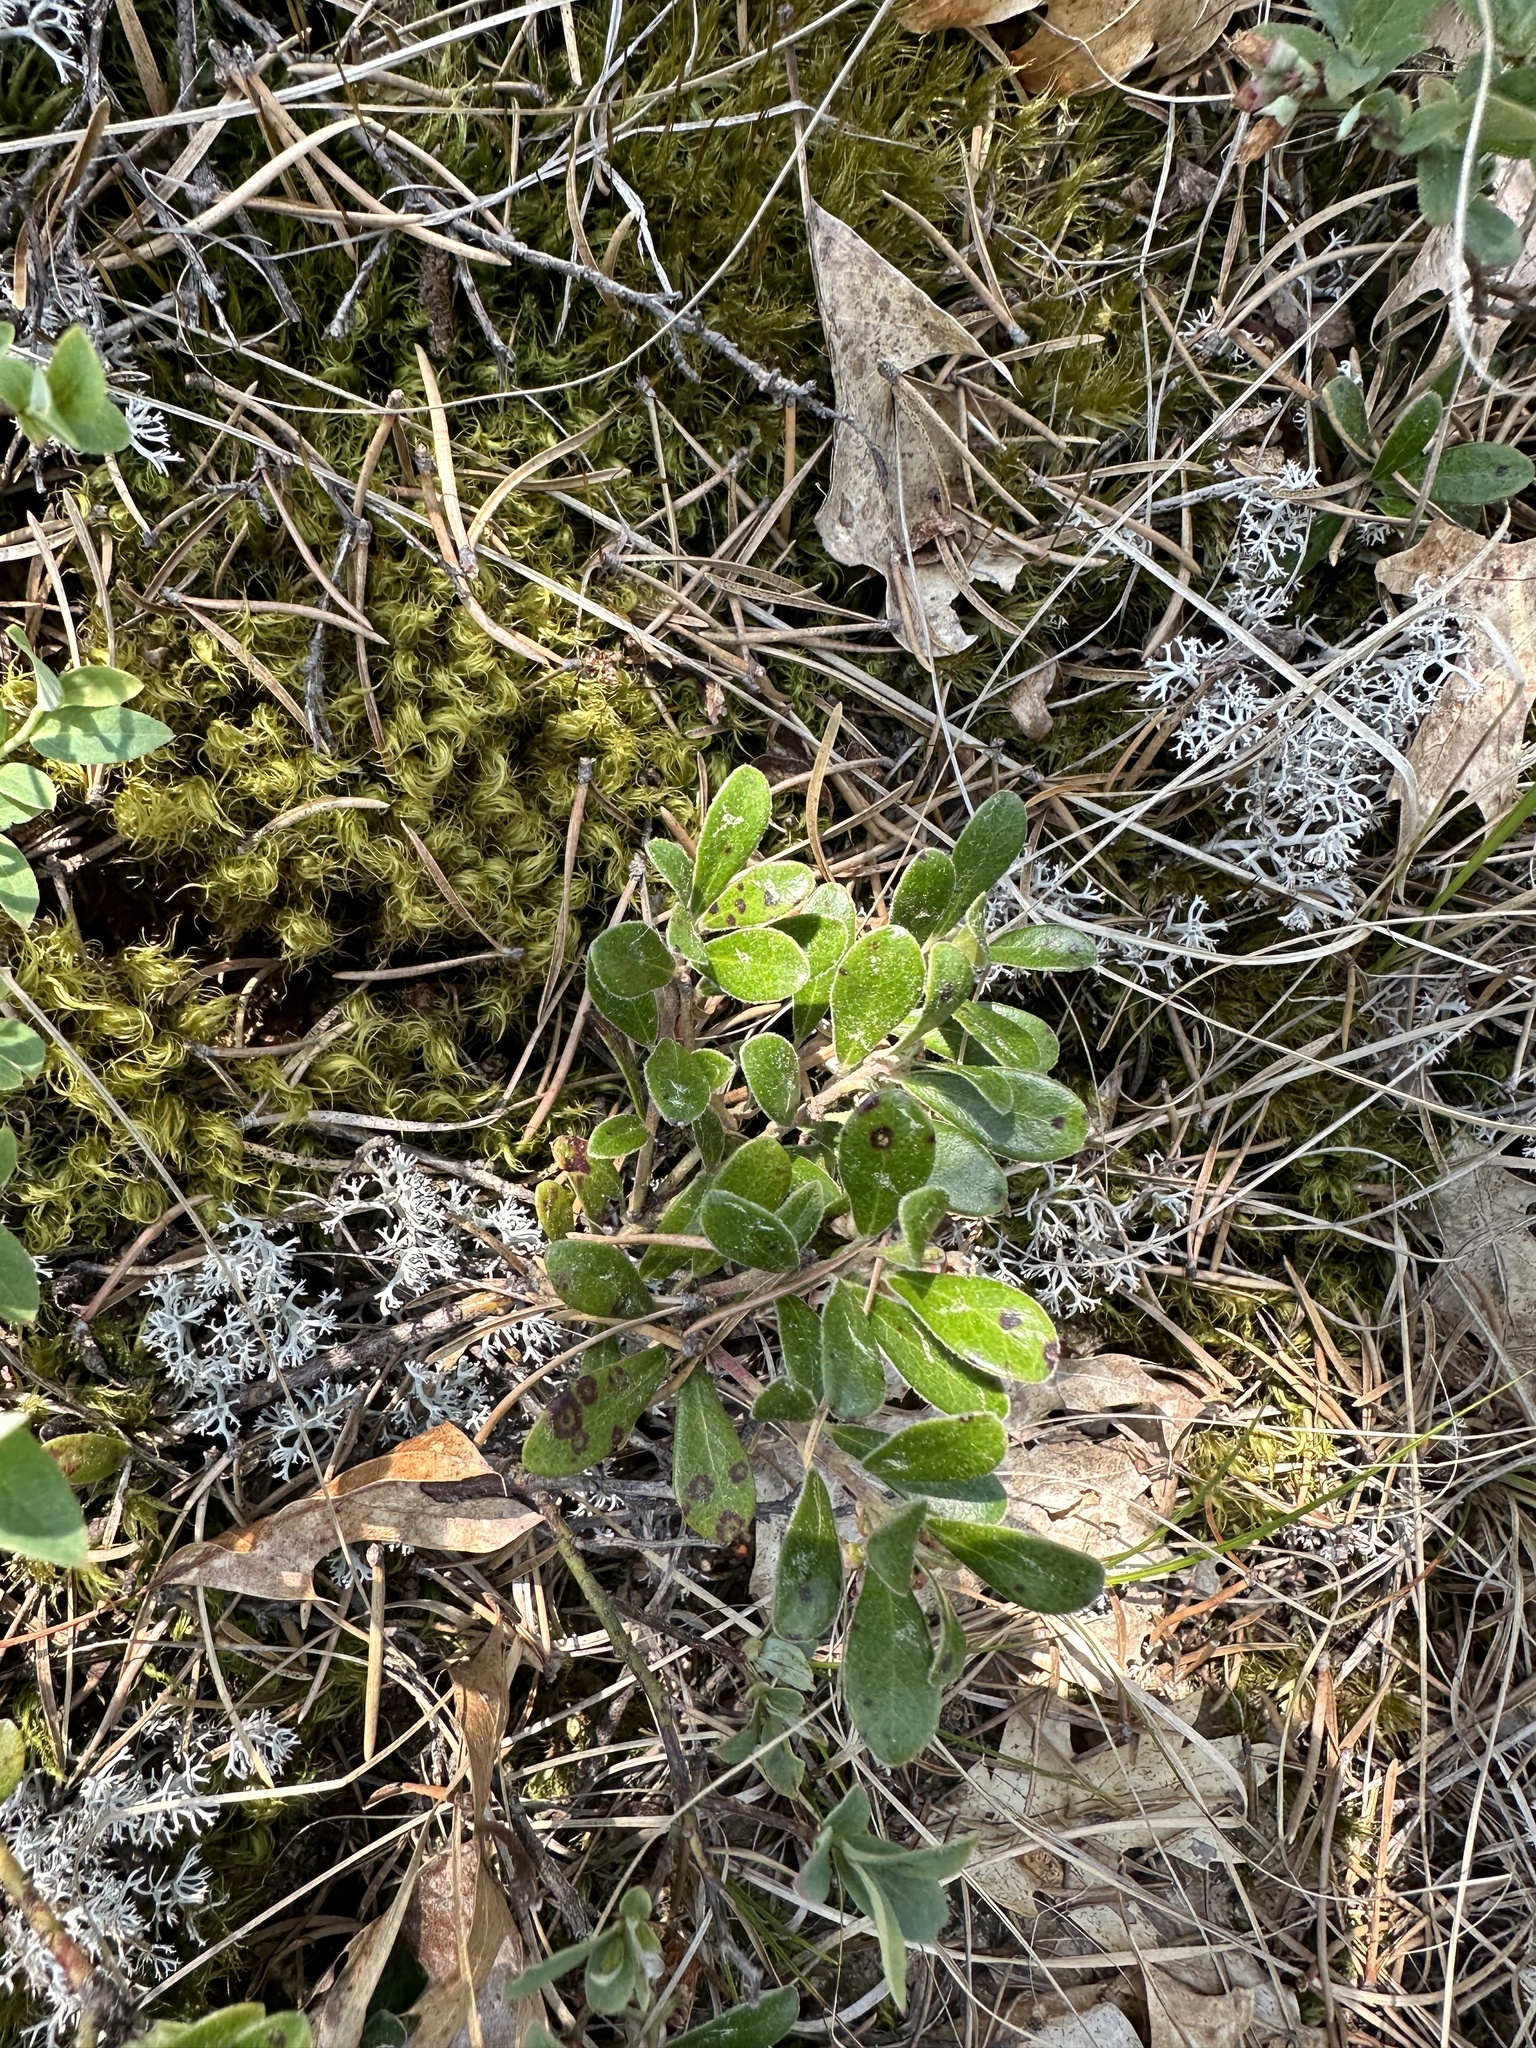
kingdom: Plantae
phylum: Tracheophyta
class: Magnoliopsida
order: Ericales
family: Ericaceae
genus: Arctostaphylos
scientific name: Arctostaphylos uva-ursi
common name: Bearberry
